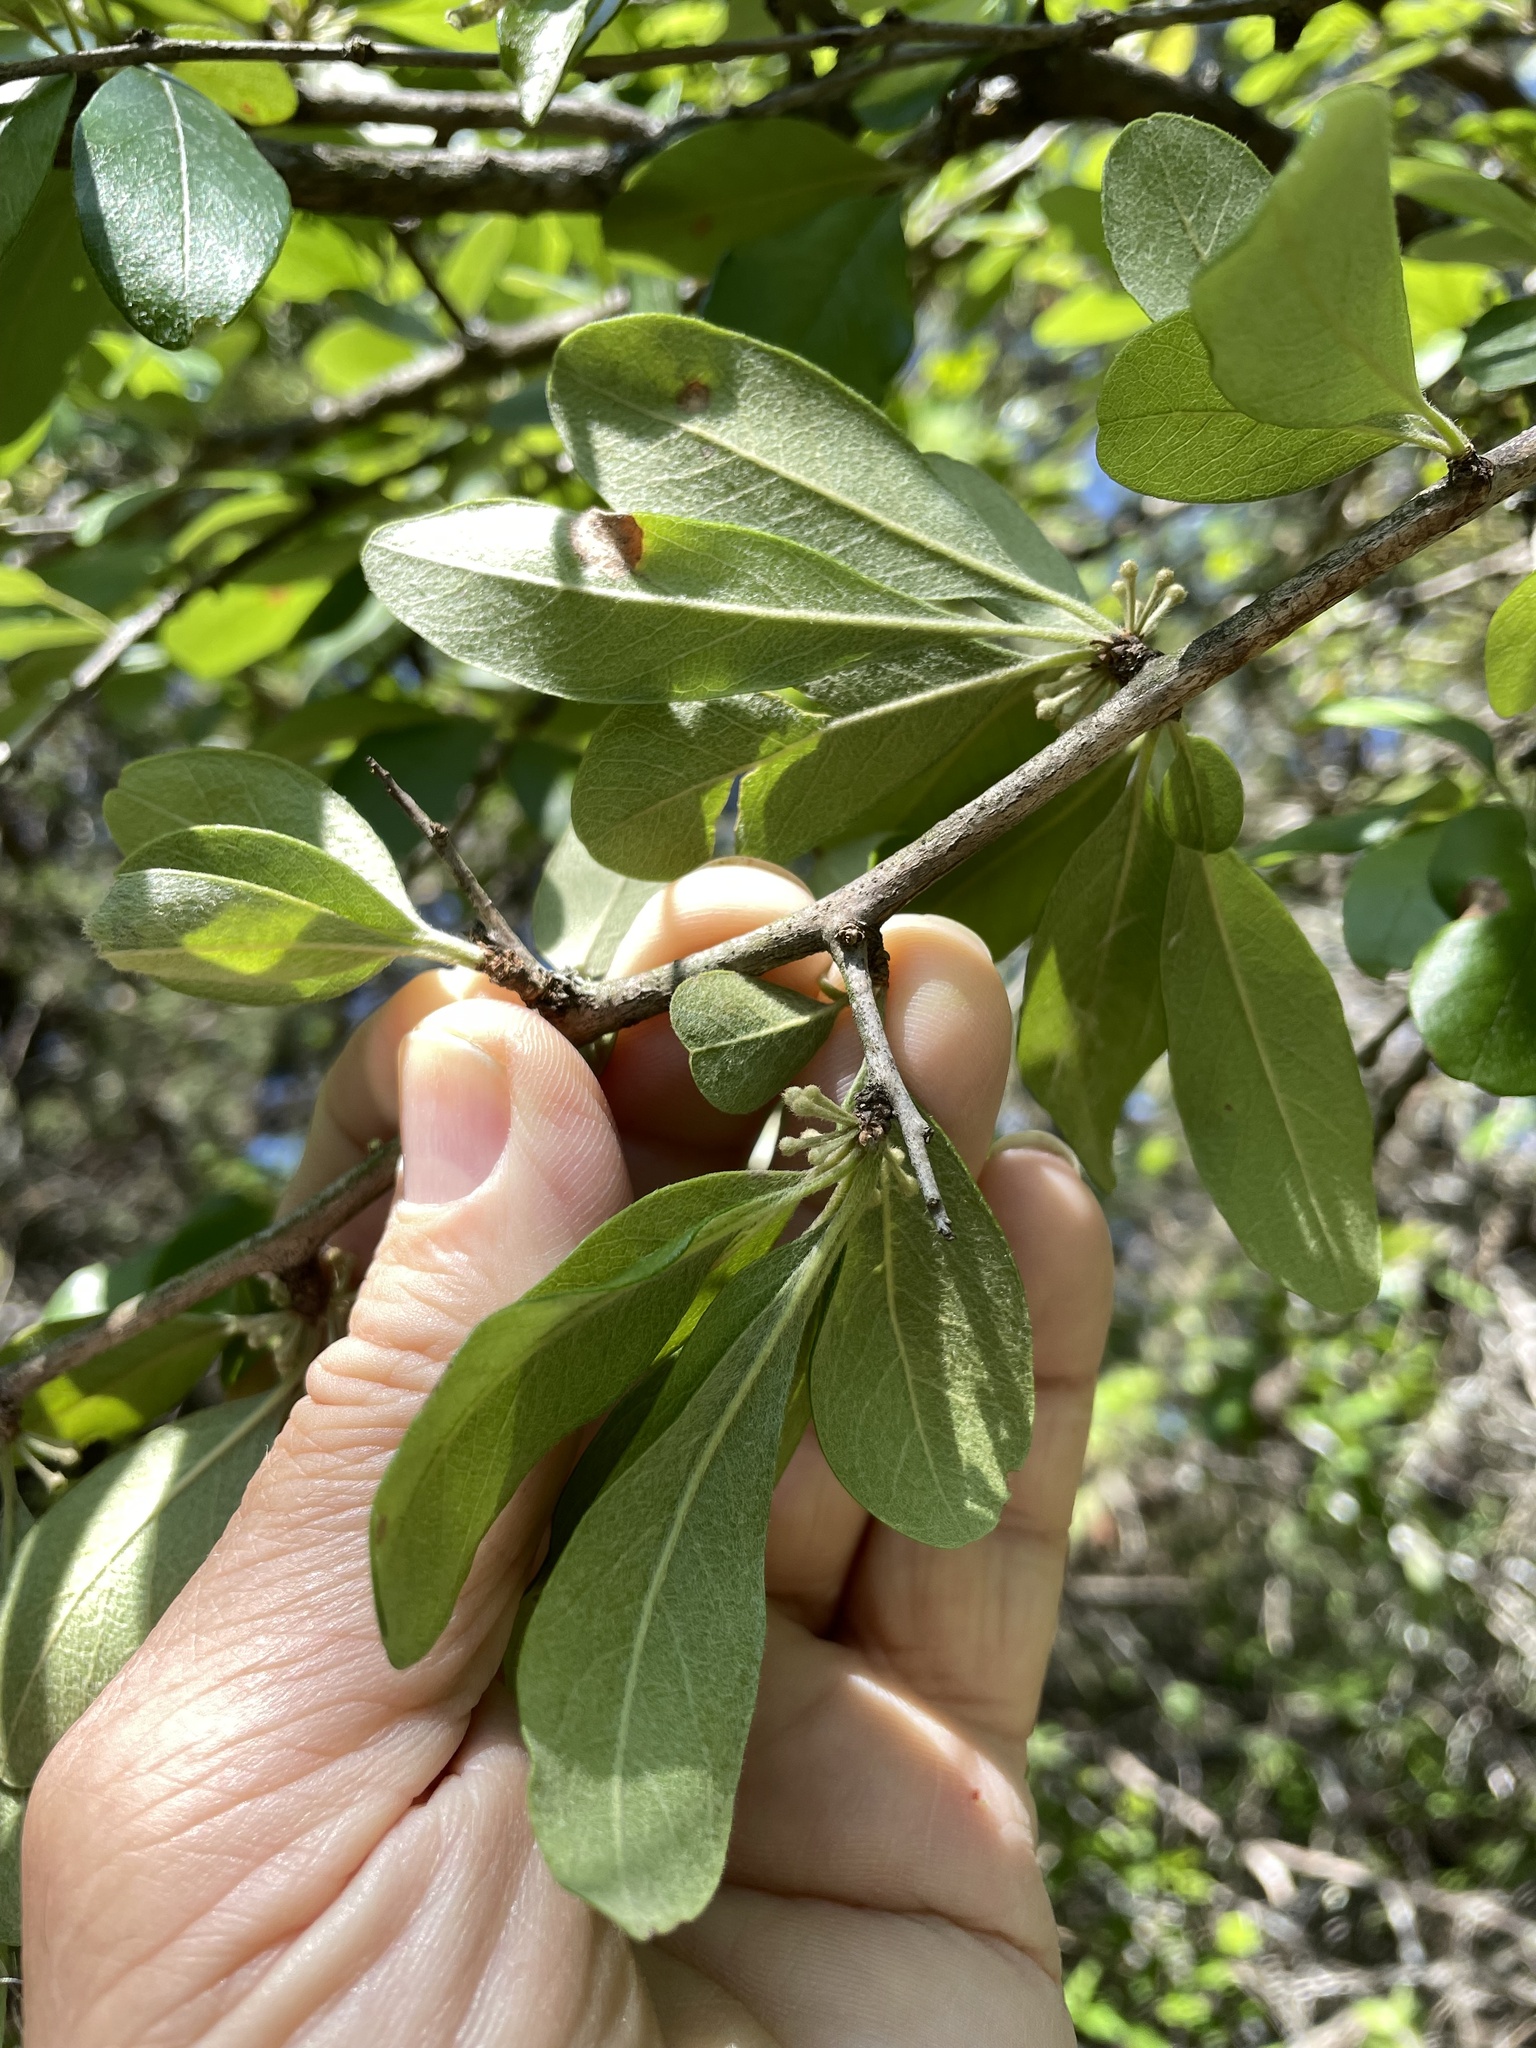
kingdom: Plantae
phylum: Tracheophyta
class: Magnoliopsida
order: Ericales
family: Sapotaceae
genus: Sideroxylon
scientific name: Sideroxylon lanuginosum
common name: Chittamwood
